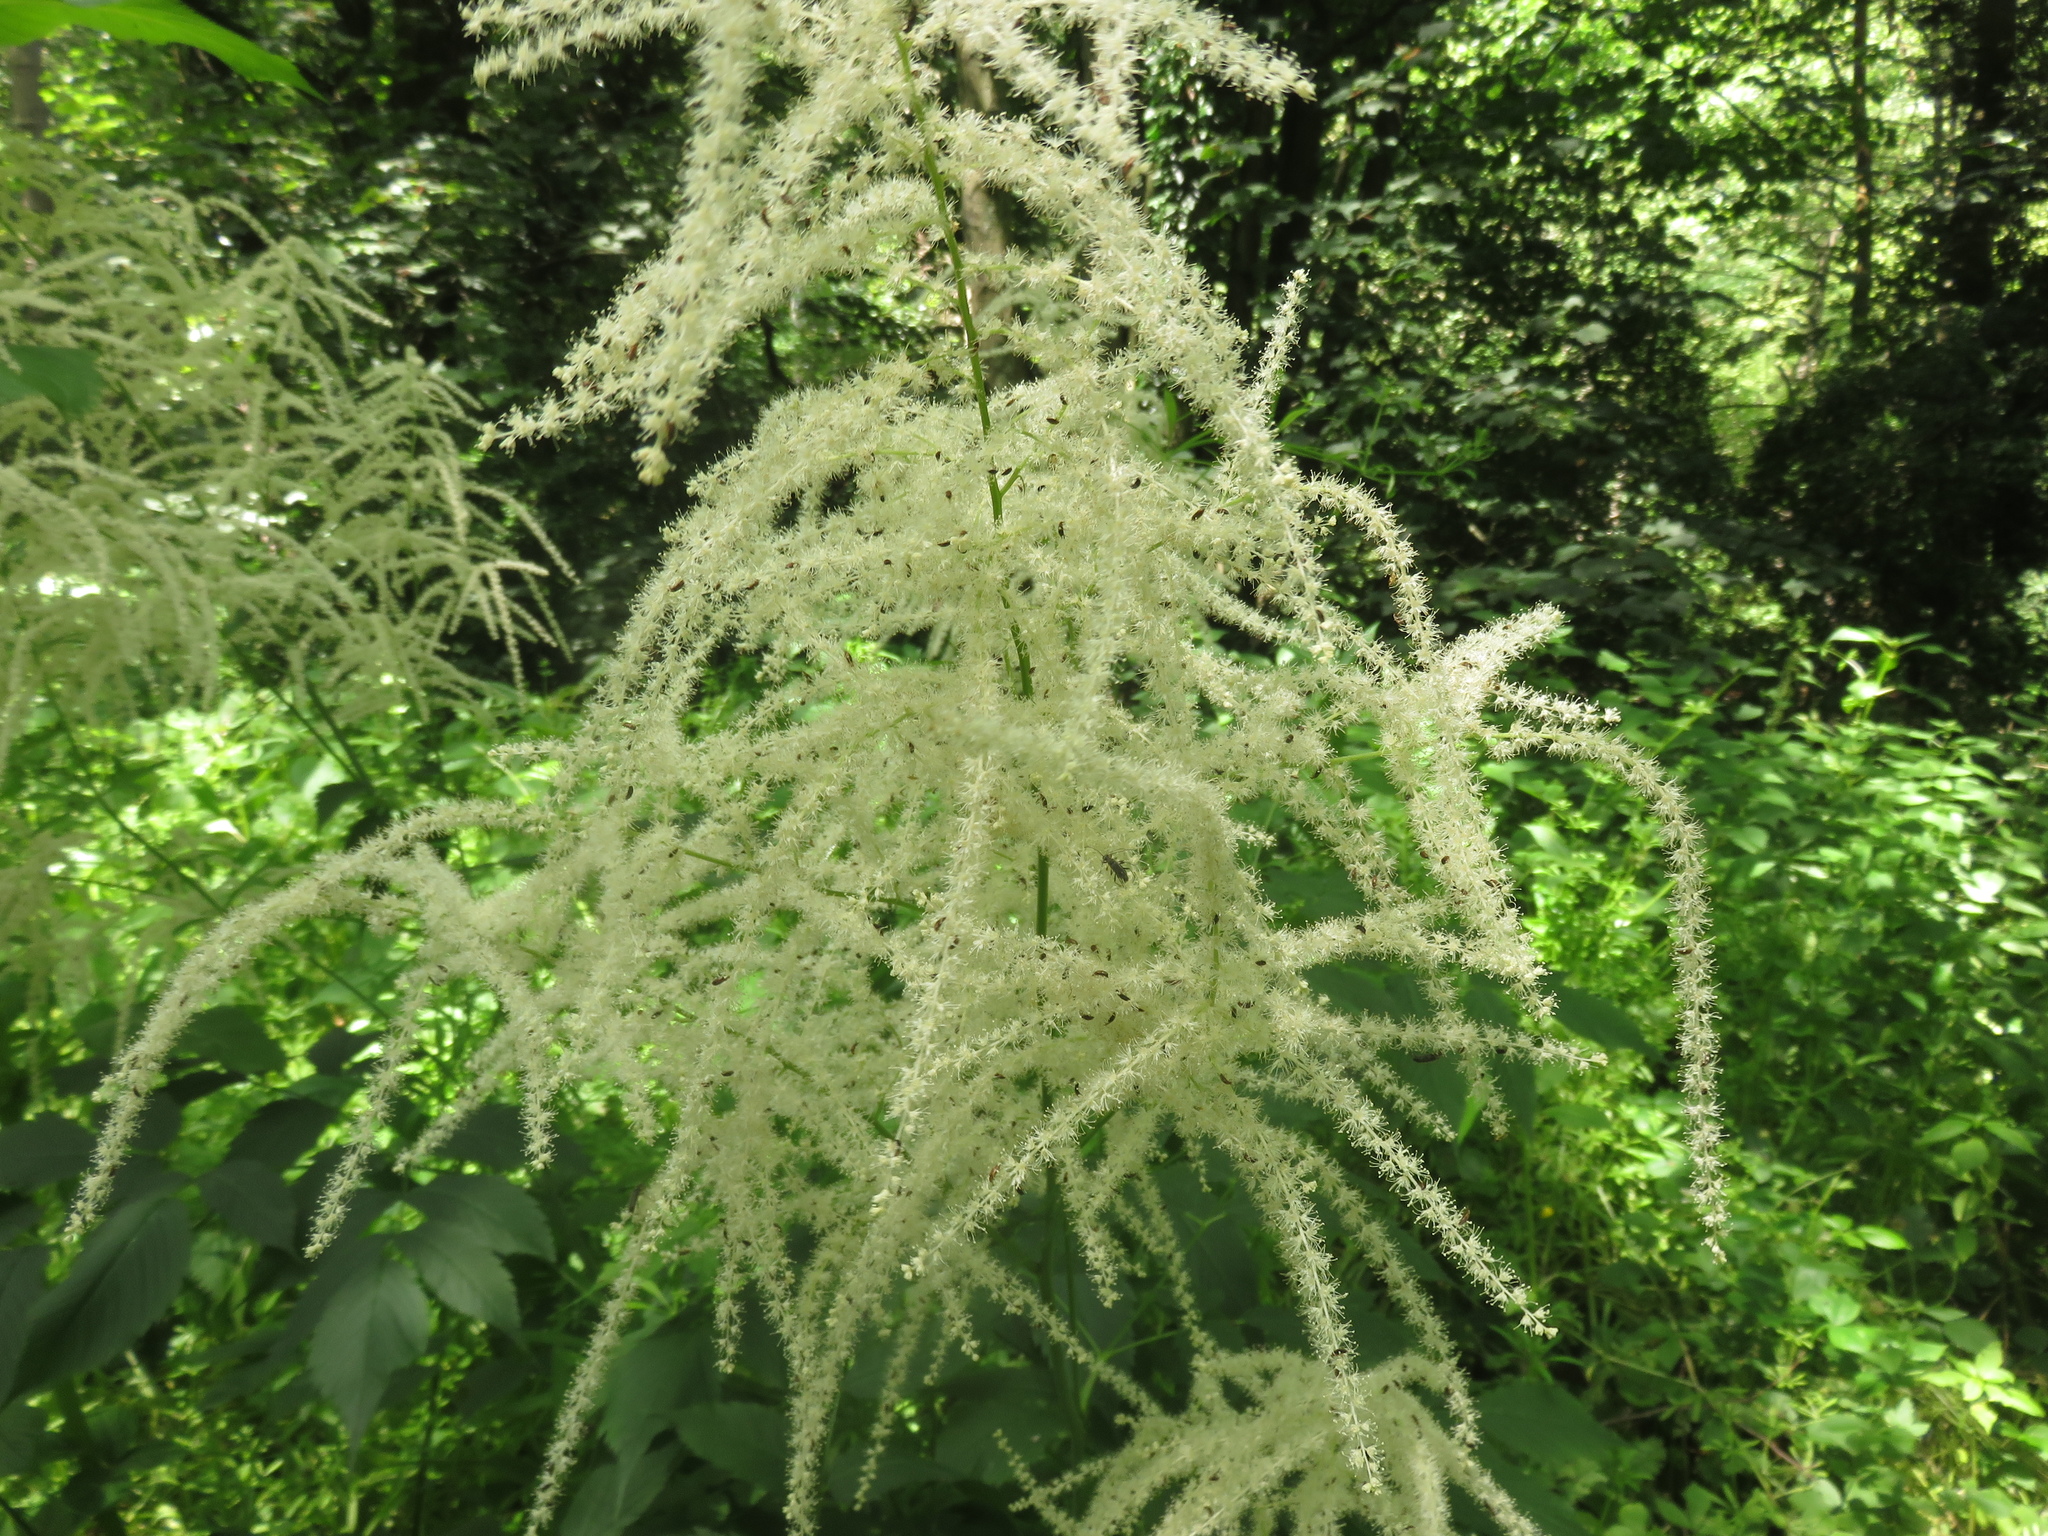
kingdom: Plantae
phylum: Tracheophyta
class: Magnoliopsida
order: Rosales
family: Rosaceae
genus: Aruncus
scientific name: Aruncus dioicus
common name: Buck's-beard
